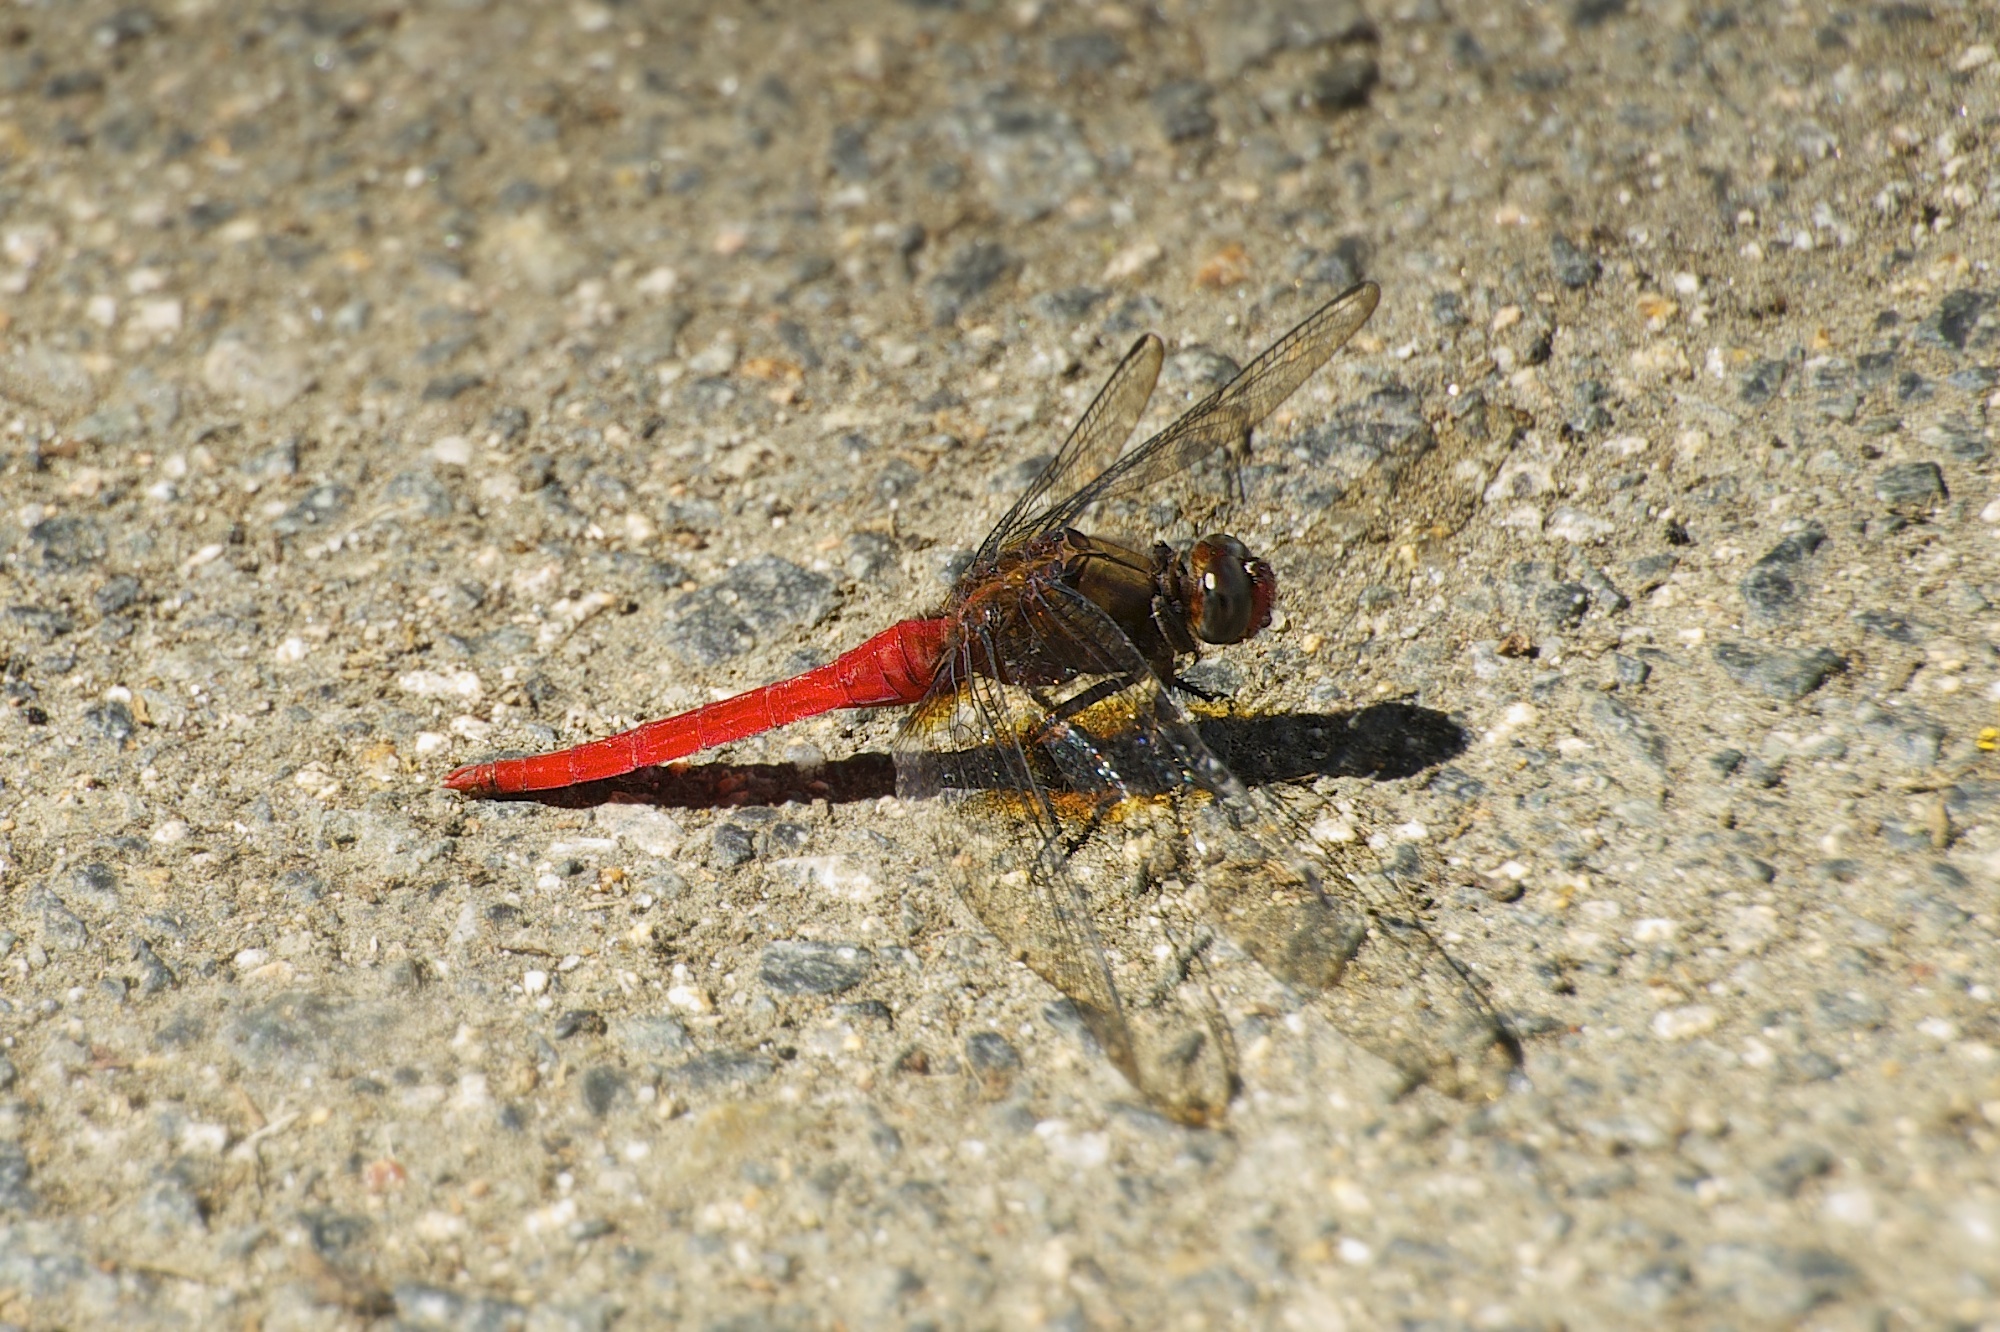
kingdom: Animalia
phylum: Arthropoda
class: Insecta
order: Odonata
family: Libellulidae
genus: Orthetrum
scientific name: Orthetrum chrysis
